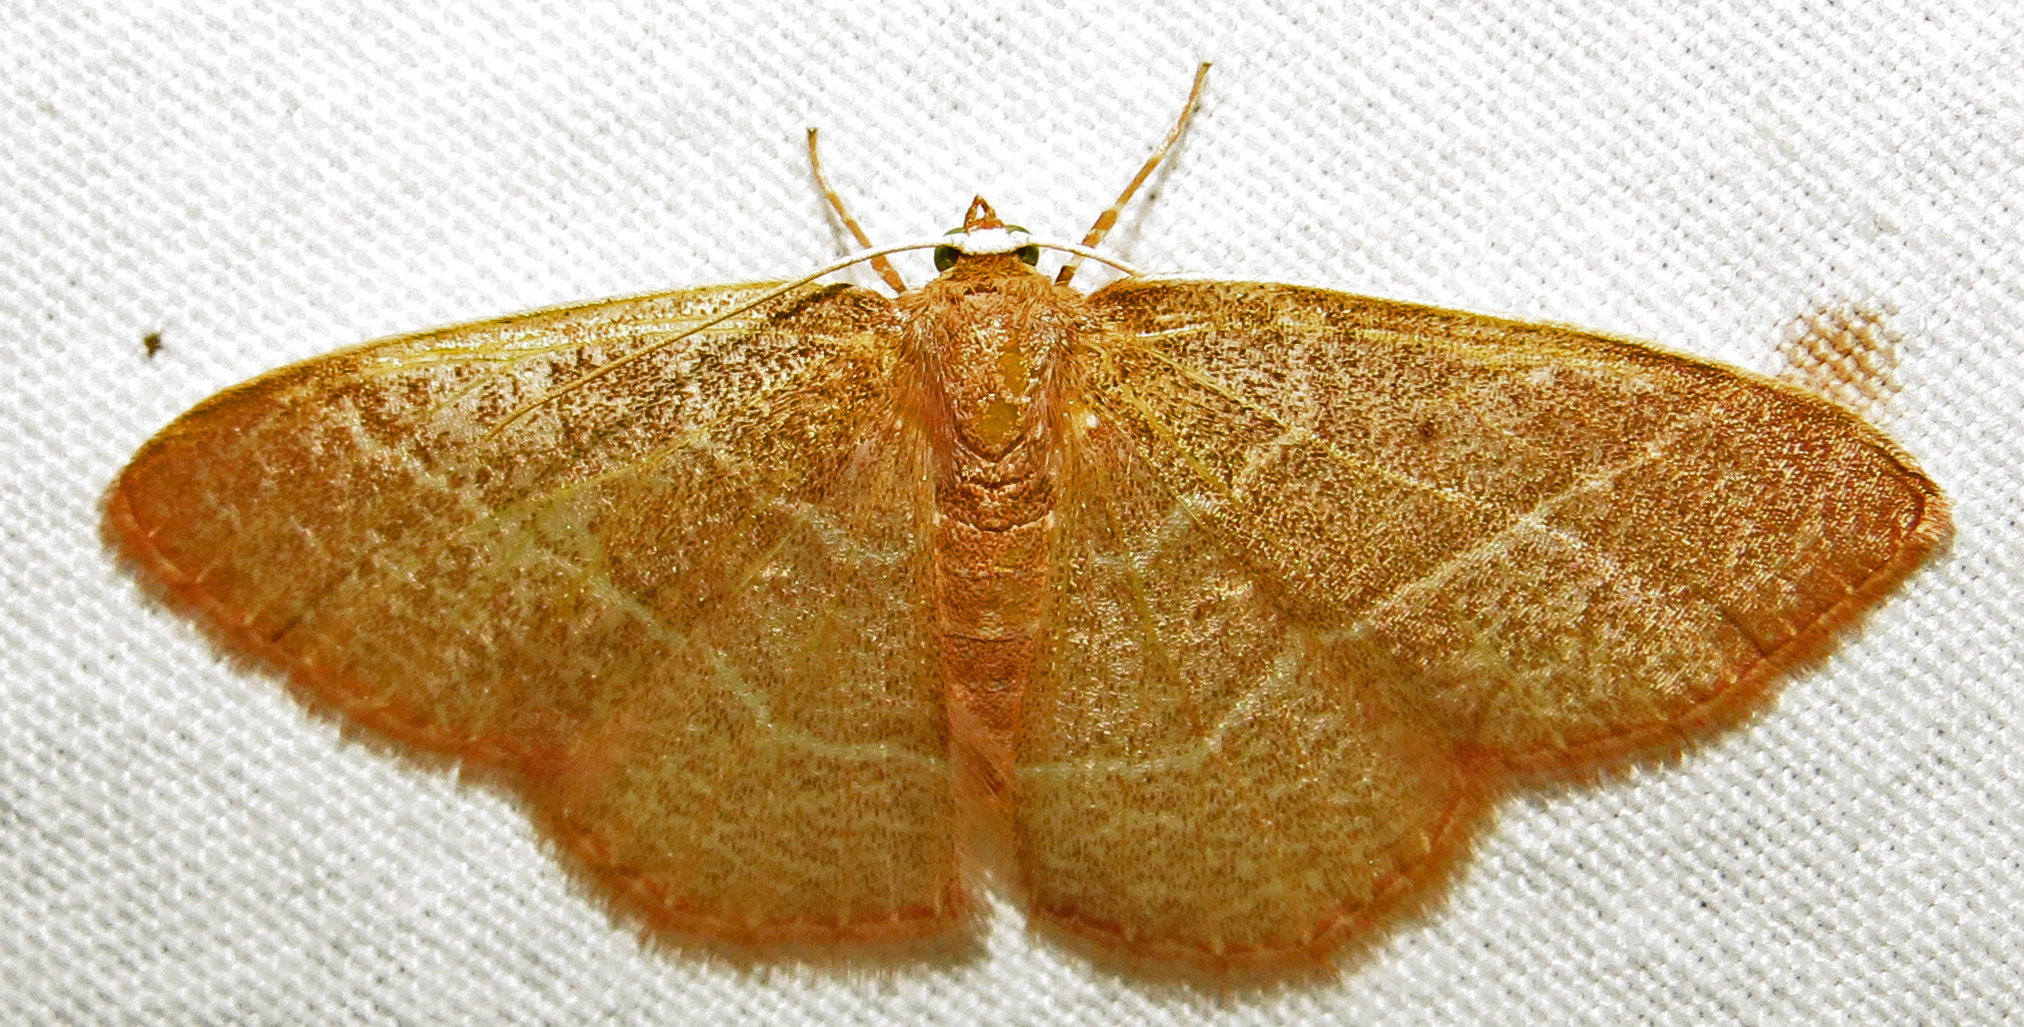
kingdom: Animalia
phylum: Arthropoda
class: Insecta
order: Lepidoptera
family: Geometridae
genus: Nemoria
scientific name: Nemoria bistriaria
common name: Red-fringed emerald
